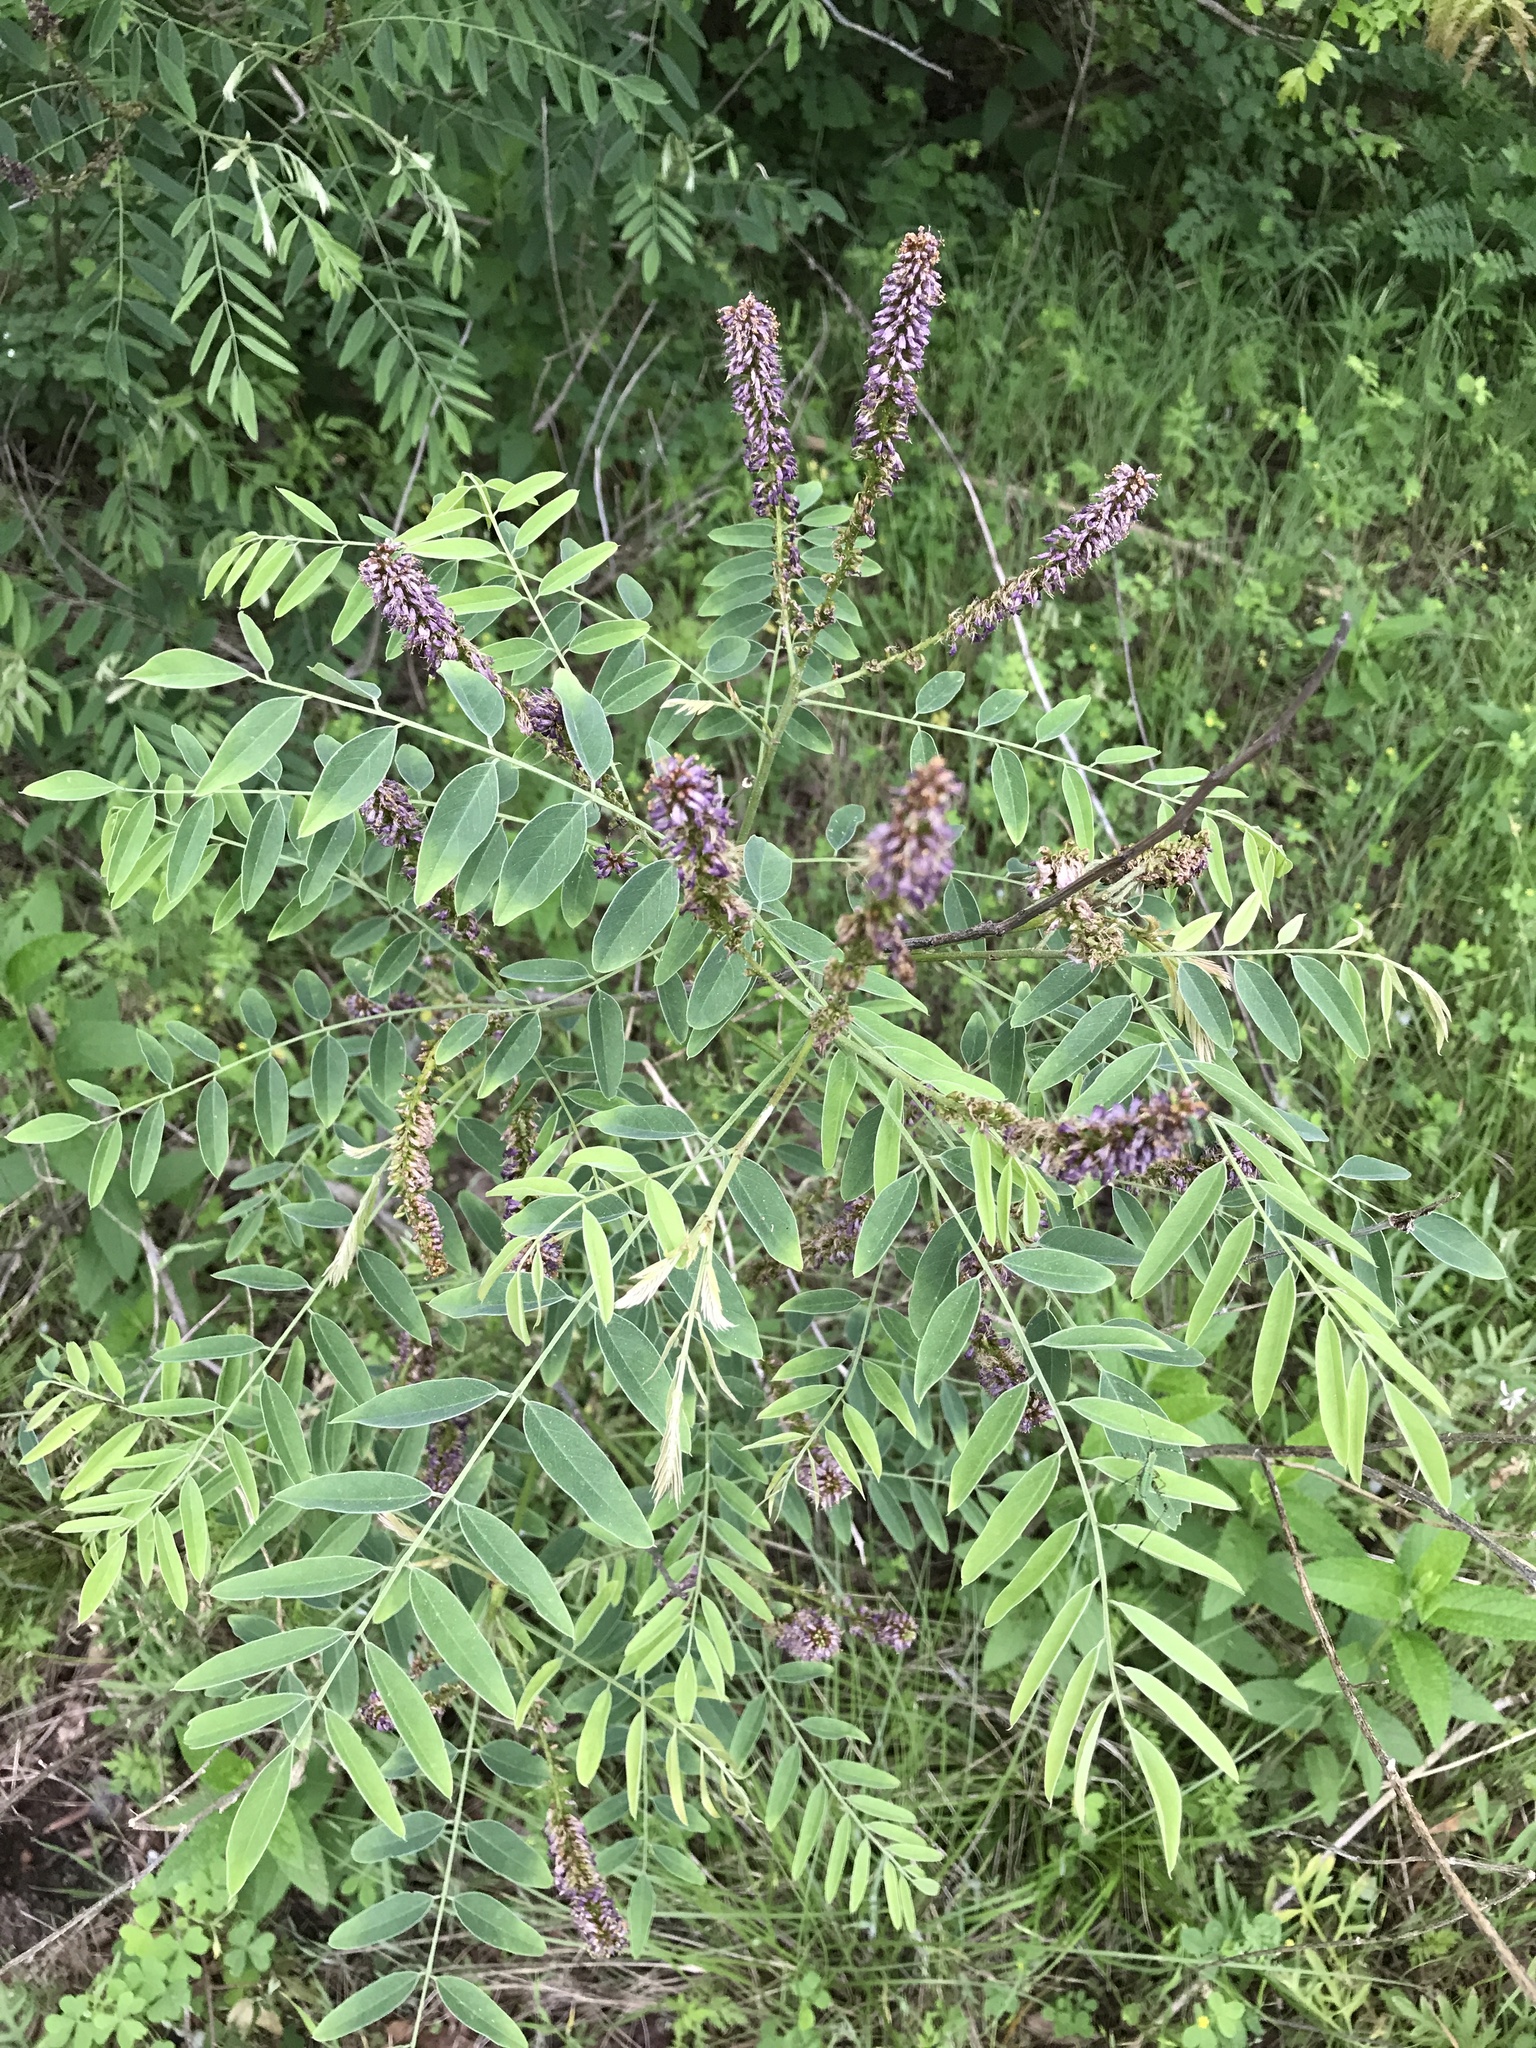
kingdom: Plantae
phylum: Tracheophyta
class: Magnoliopsida
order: Fabales
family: Fabaceae
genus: Amorpha
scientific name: Amorpha fruticosa
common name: False indigo
